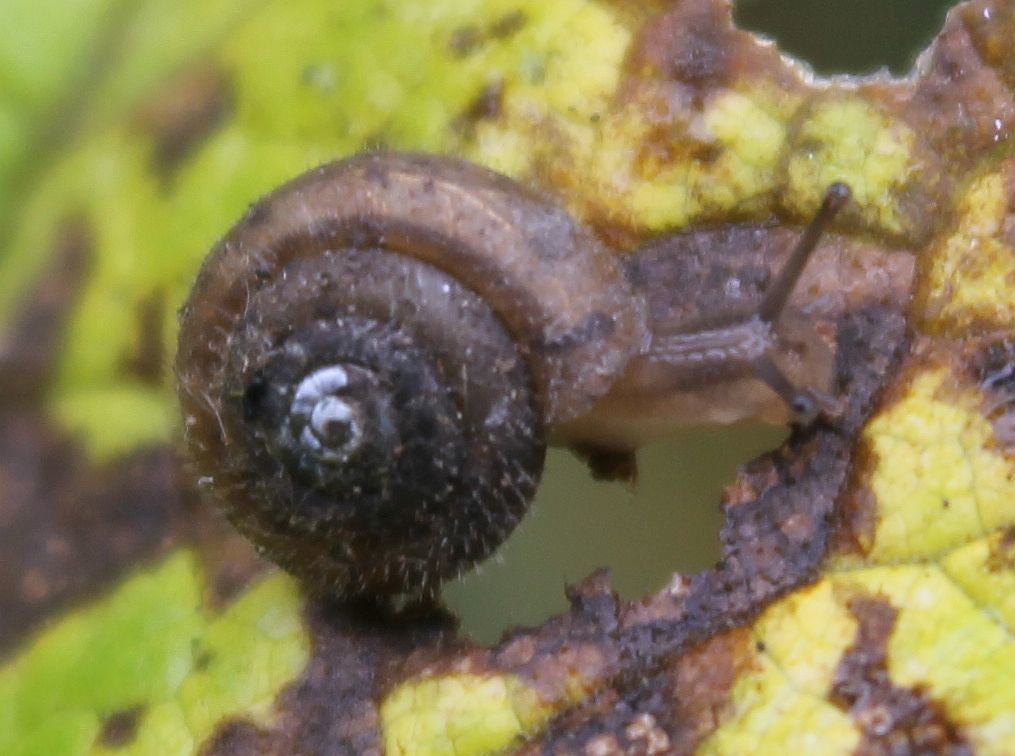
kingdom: Animalia
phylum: Mollusca
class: Gastropoda
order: Stylommatophora
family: Hygromiidae
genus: Trochulus
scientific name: Trochulus hispidus
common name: Hairy snail
